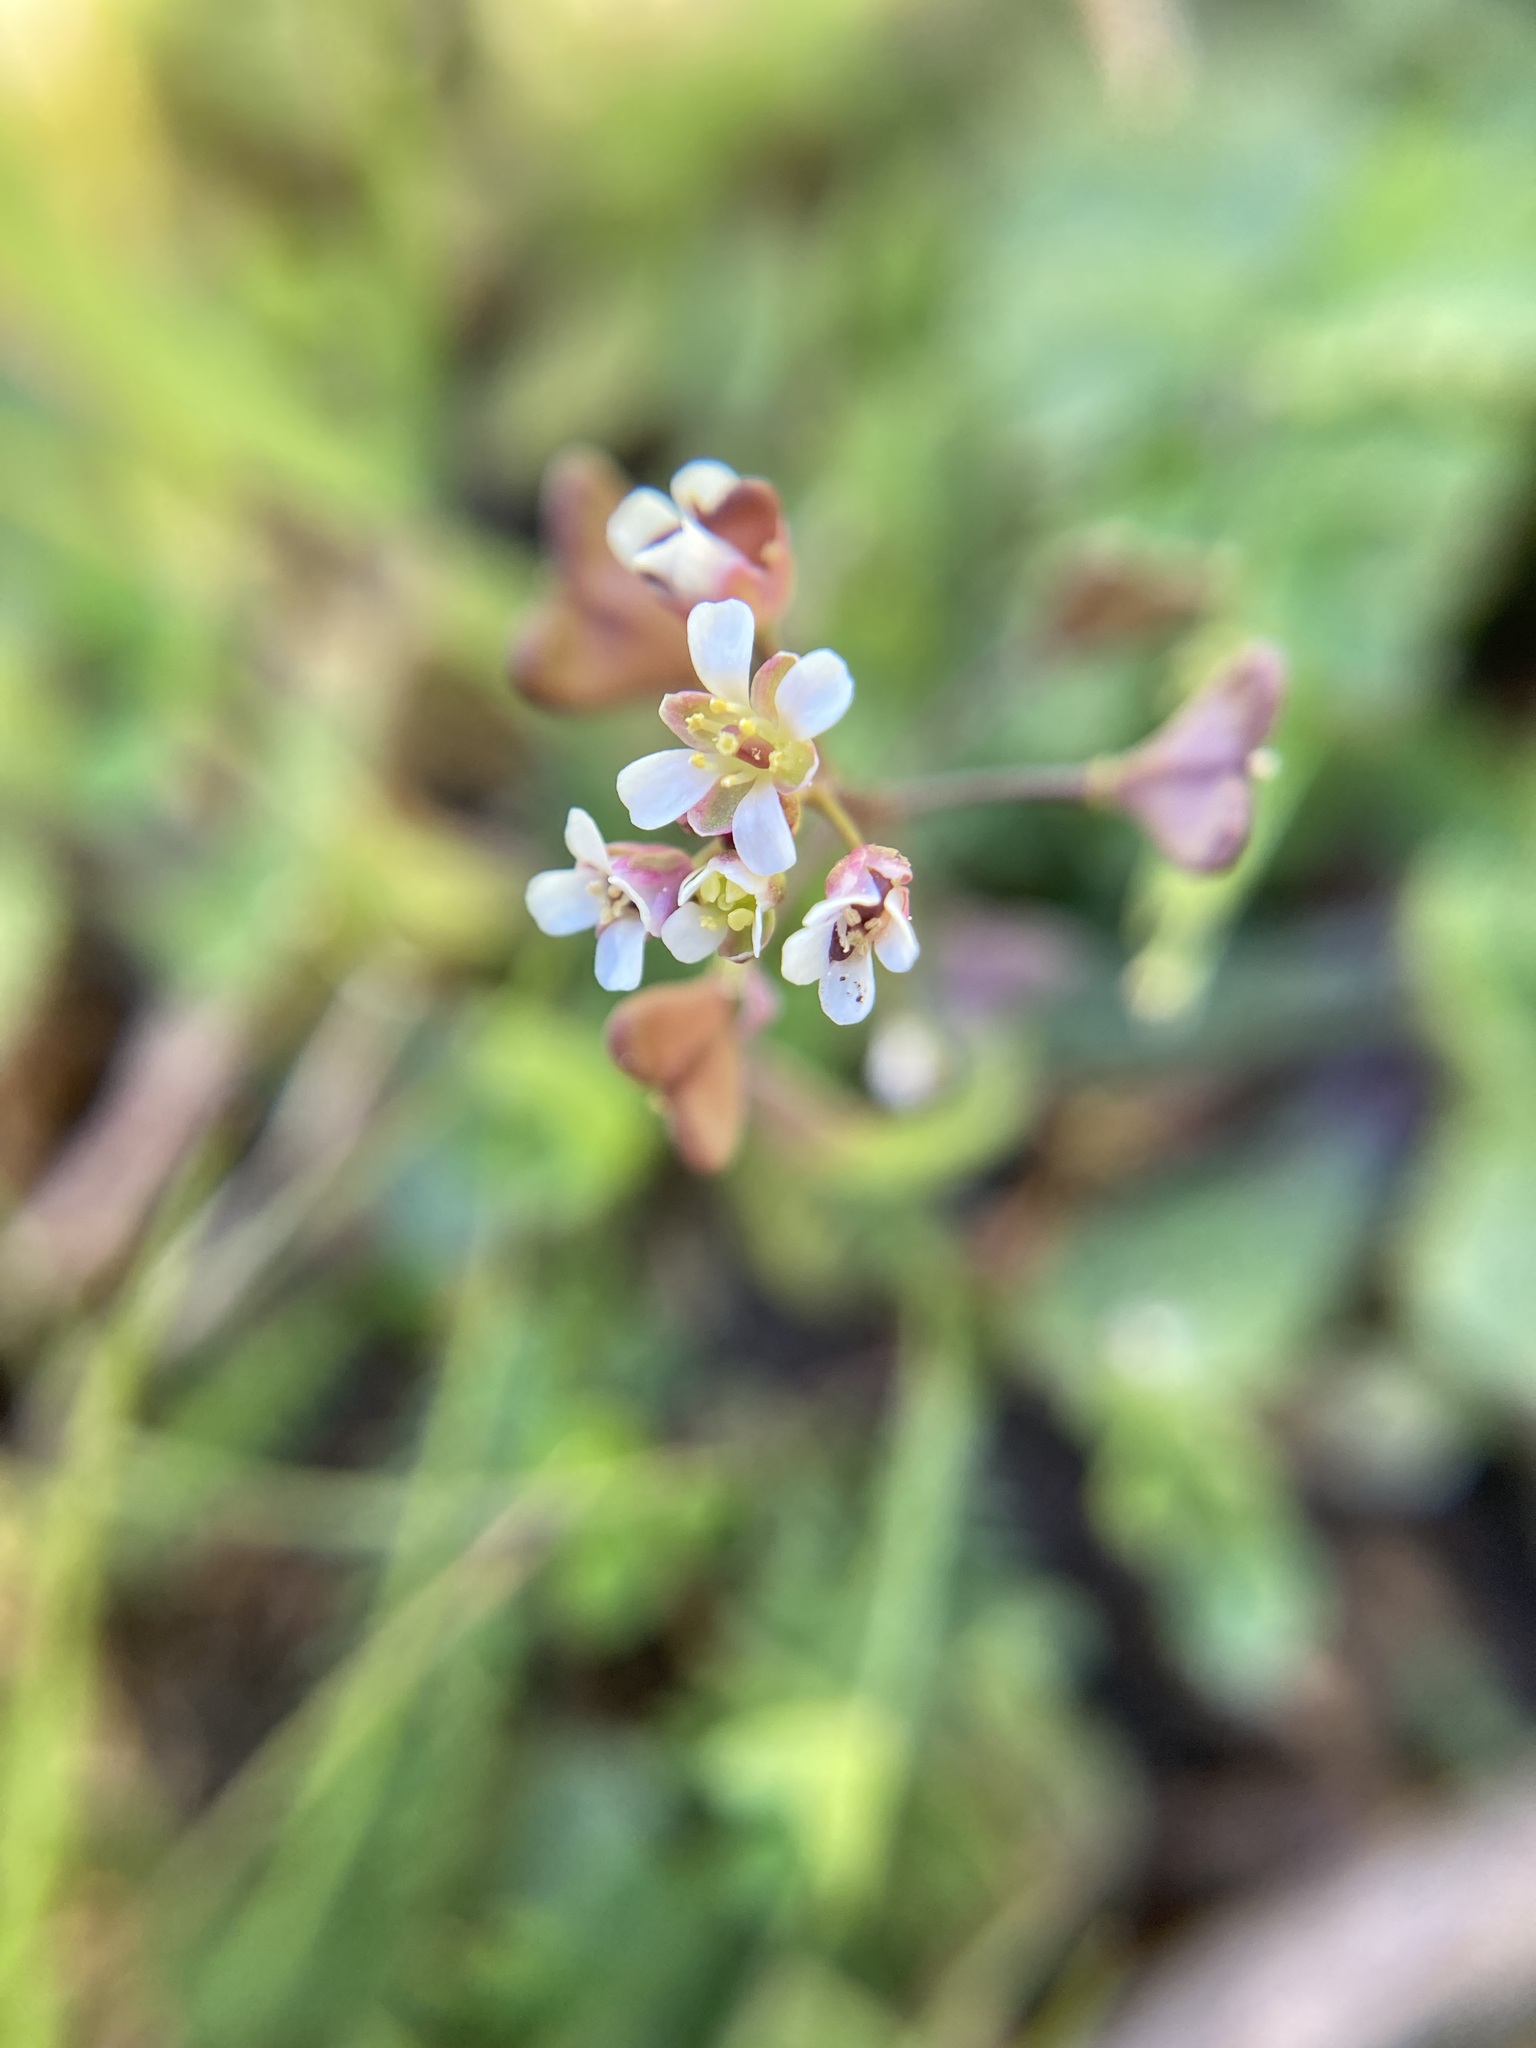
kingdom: Plantae
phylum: Tracheophyta
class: Magnoliopsida
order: Brassicales
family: Brassicaceae
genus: Capsella
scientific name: Capsella bursa-pastoris
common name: Shepherd's purse
